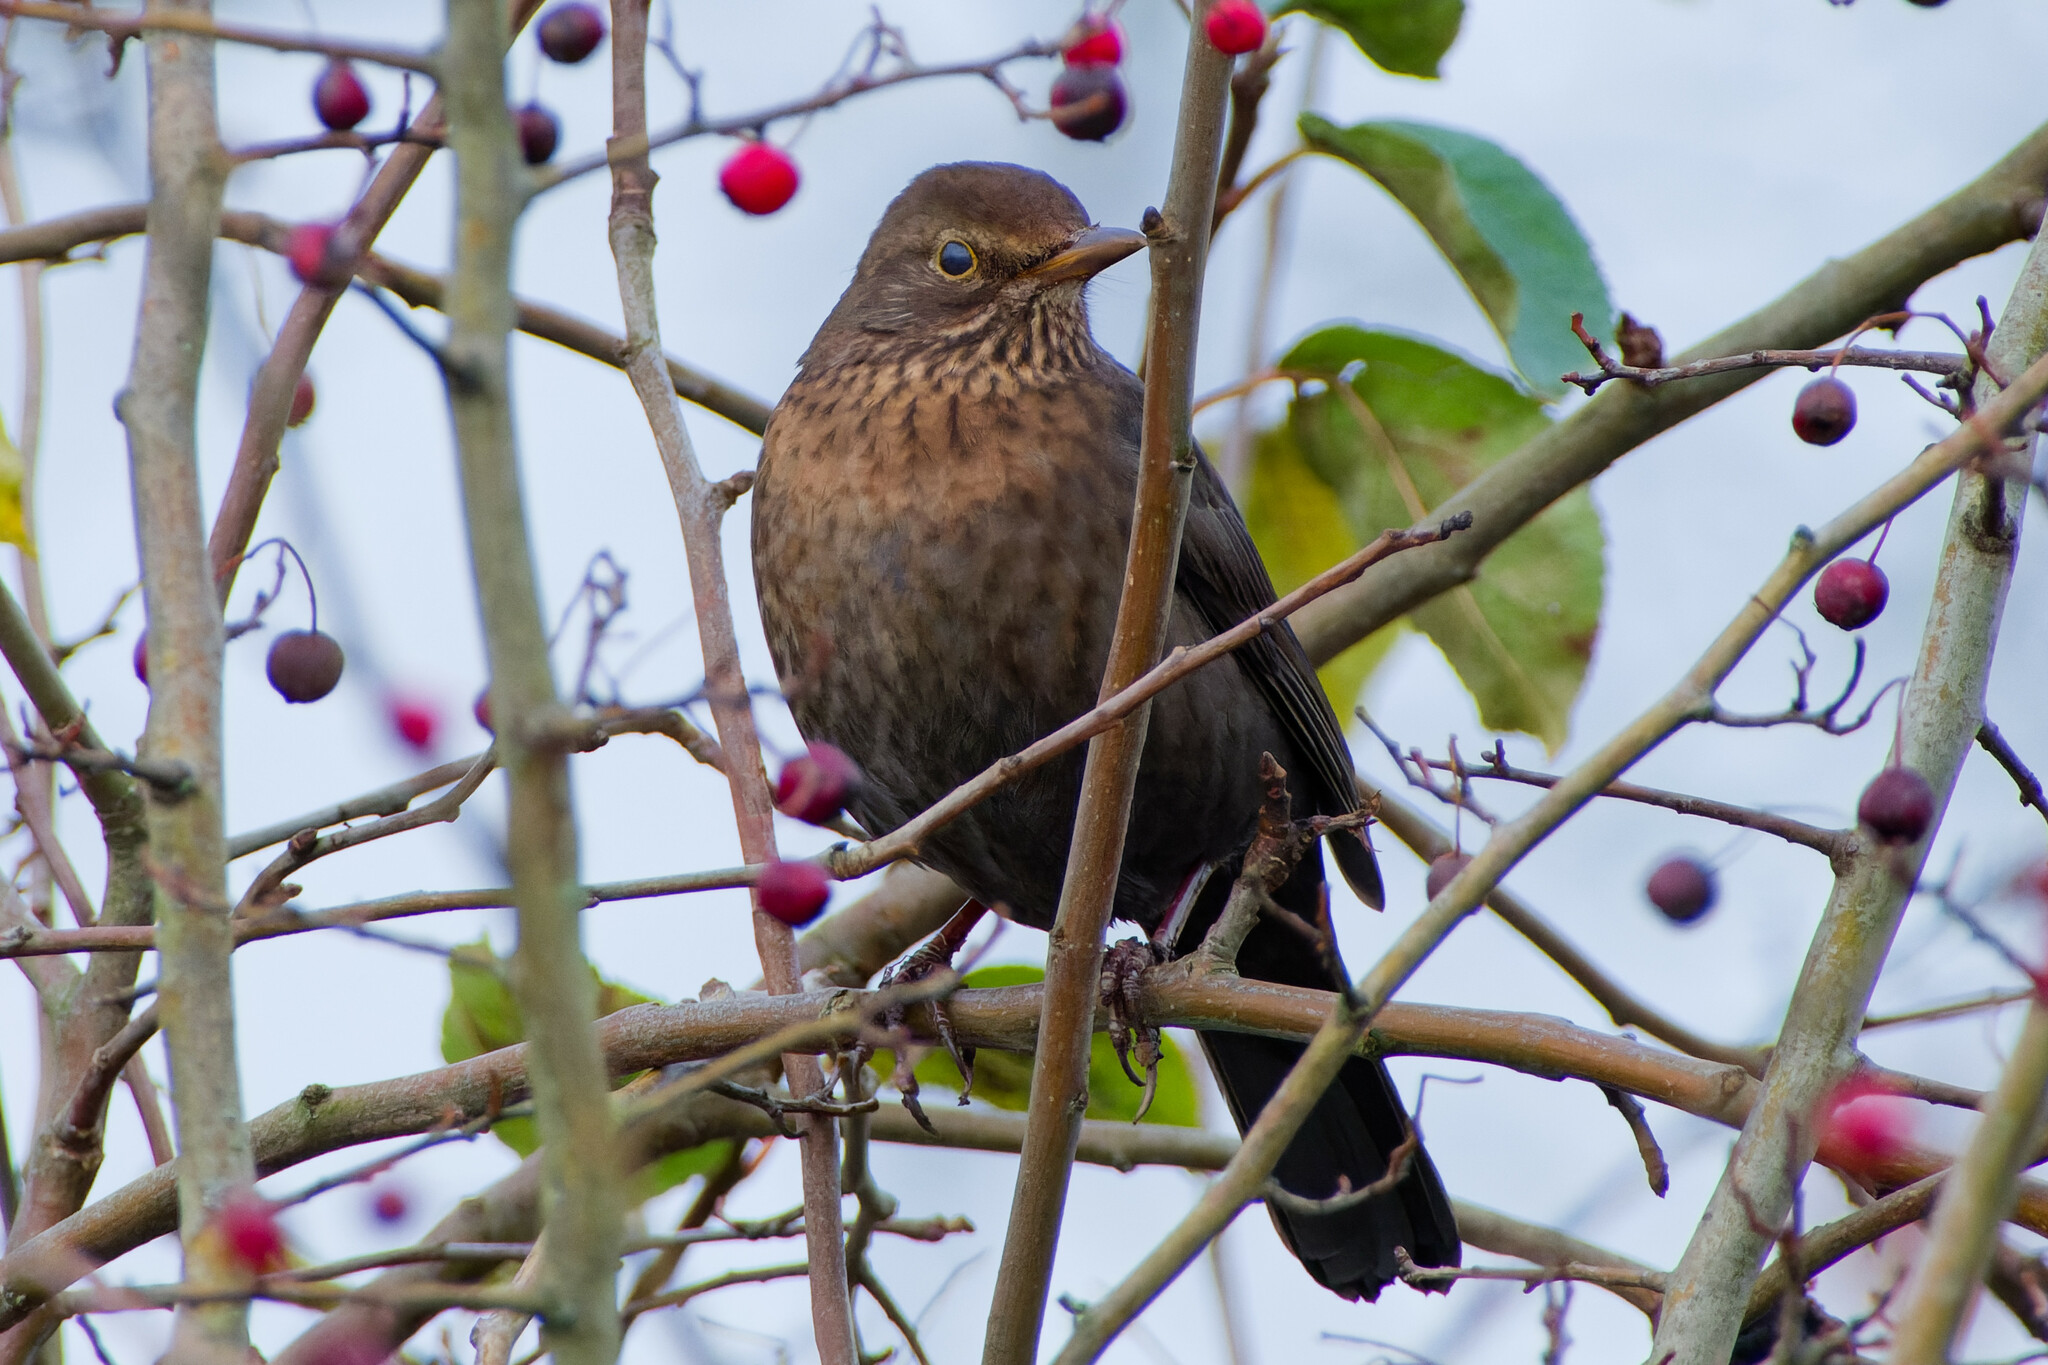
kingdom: Animalia
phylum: Chordata
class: Aves
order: Passeriformes
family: Turdidae
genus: Turdus
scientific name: Turdus merula
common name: Common blackbird
